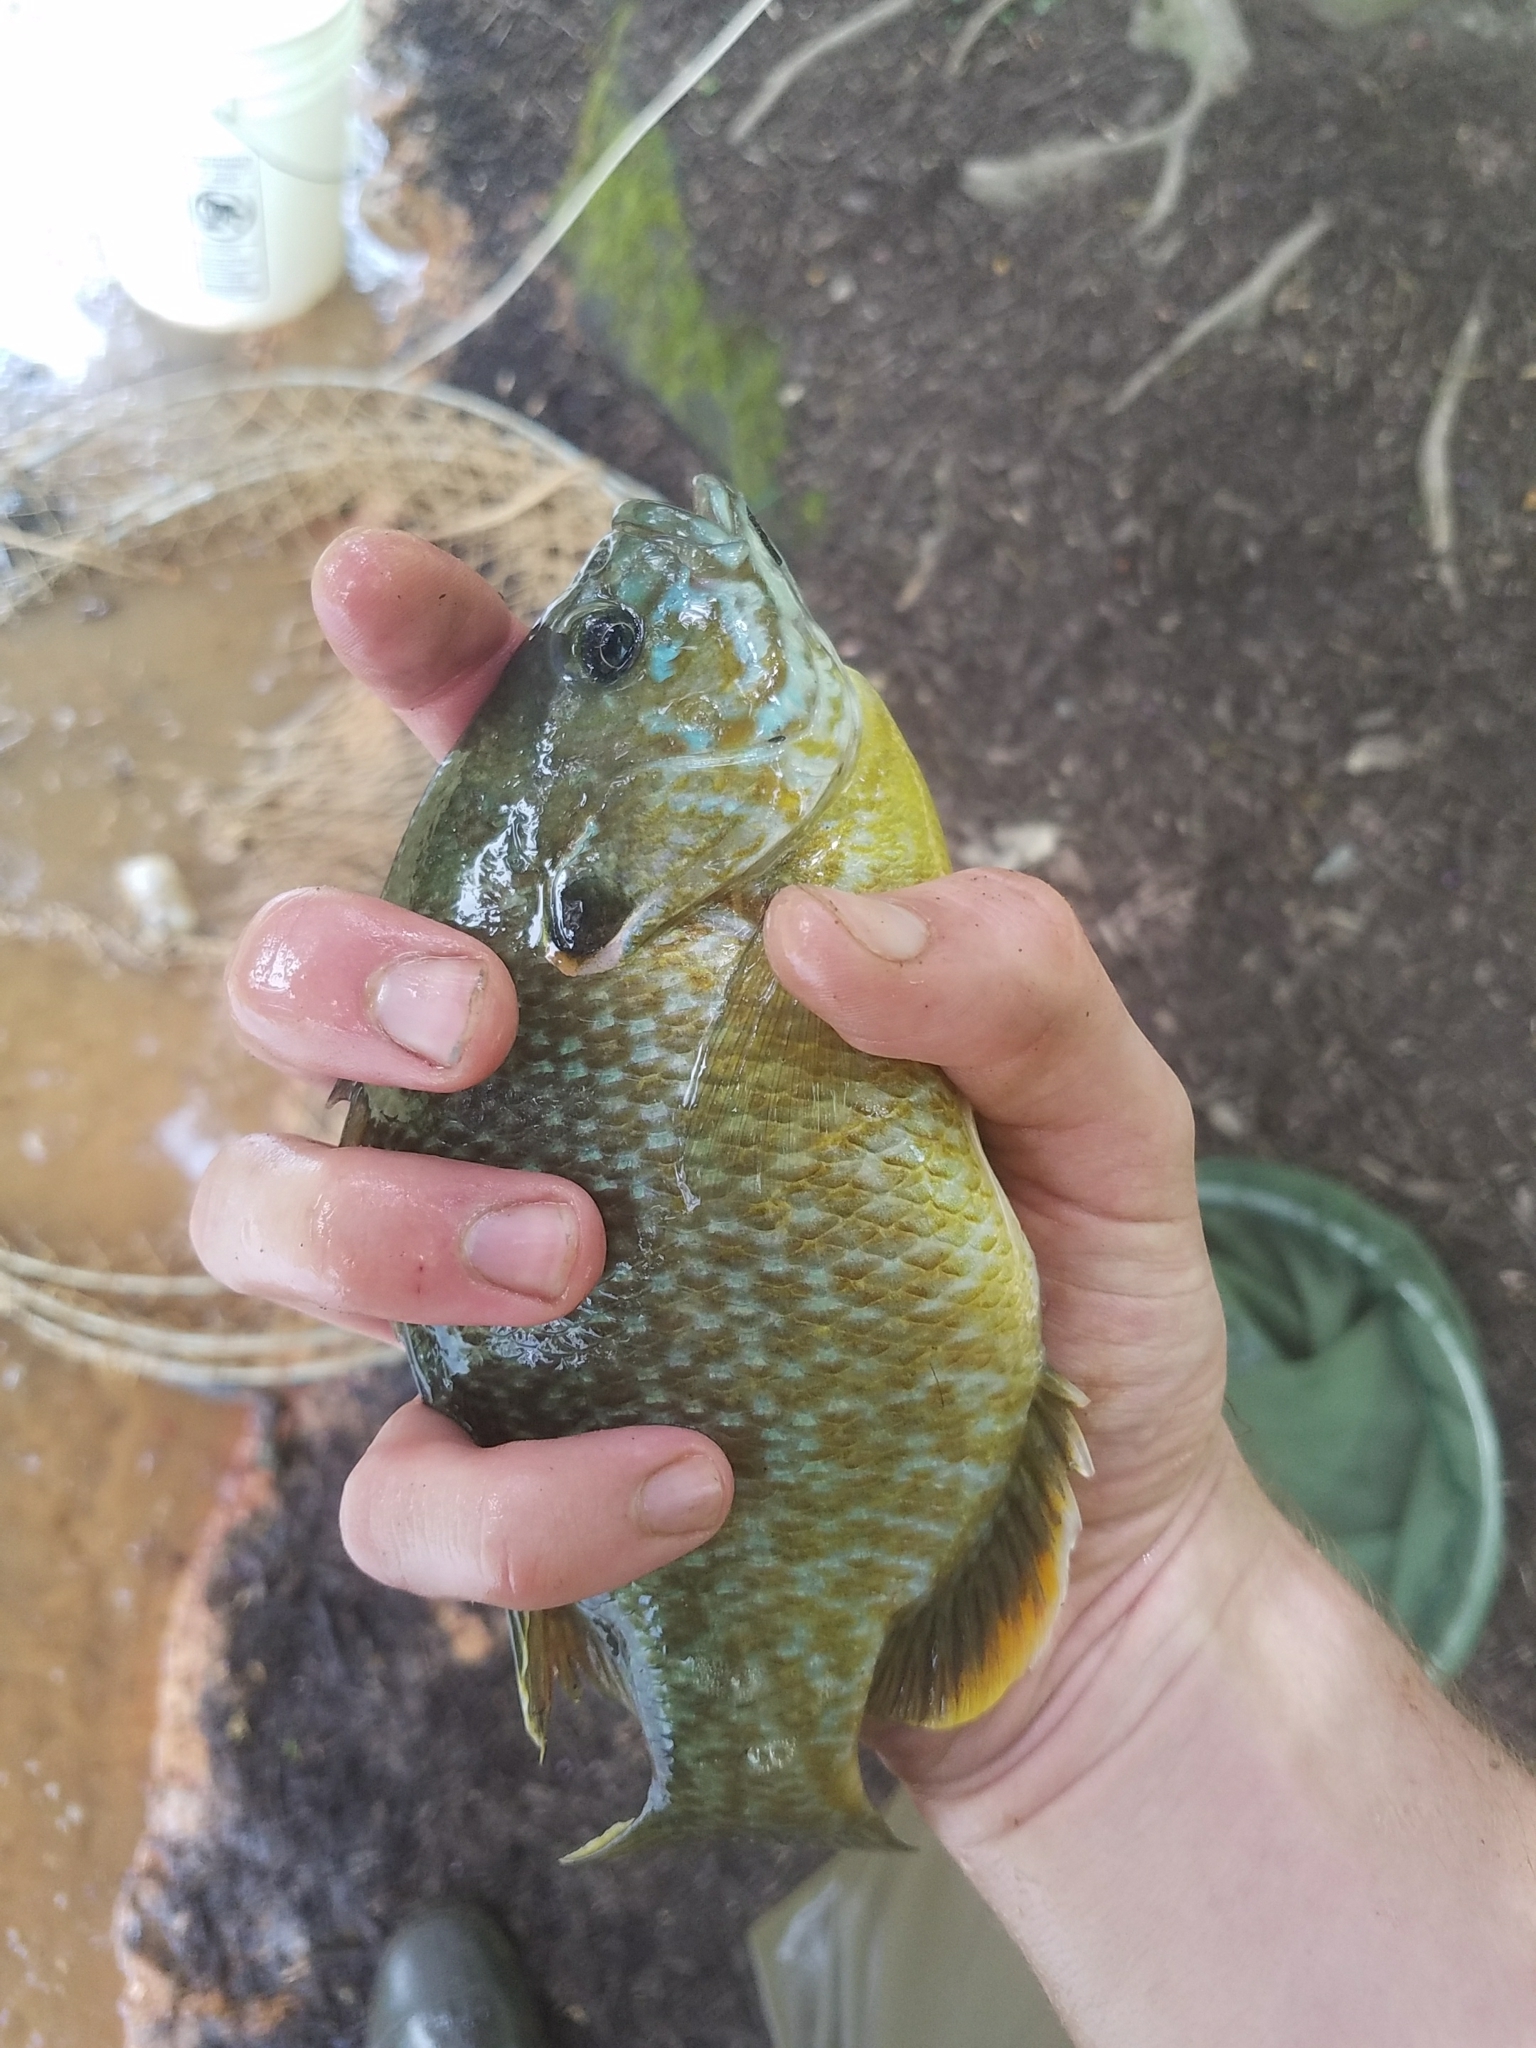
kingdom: Animalia
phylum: Chordata
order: Perciformes
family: Centrarchidae
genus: Lepomis
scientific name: Lepomis
